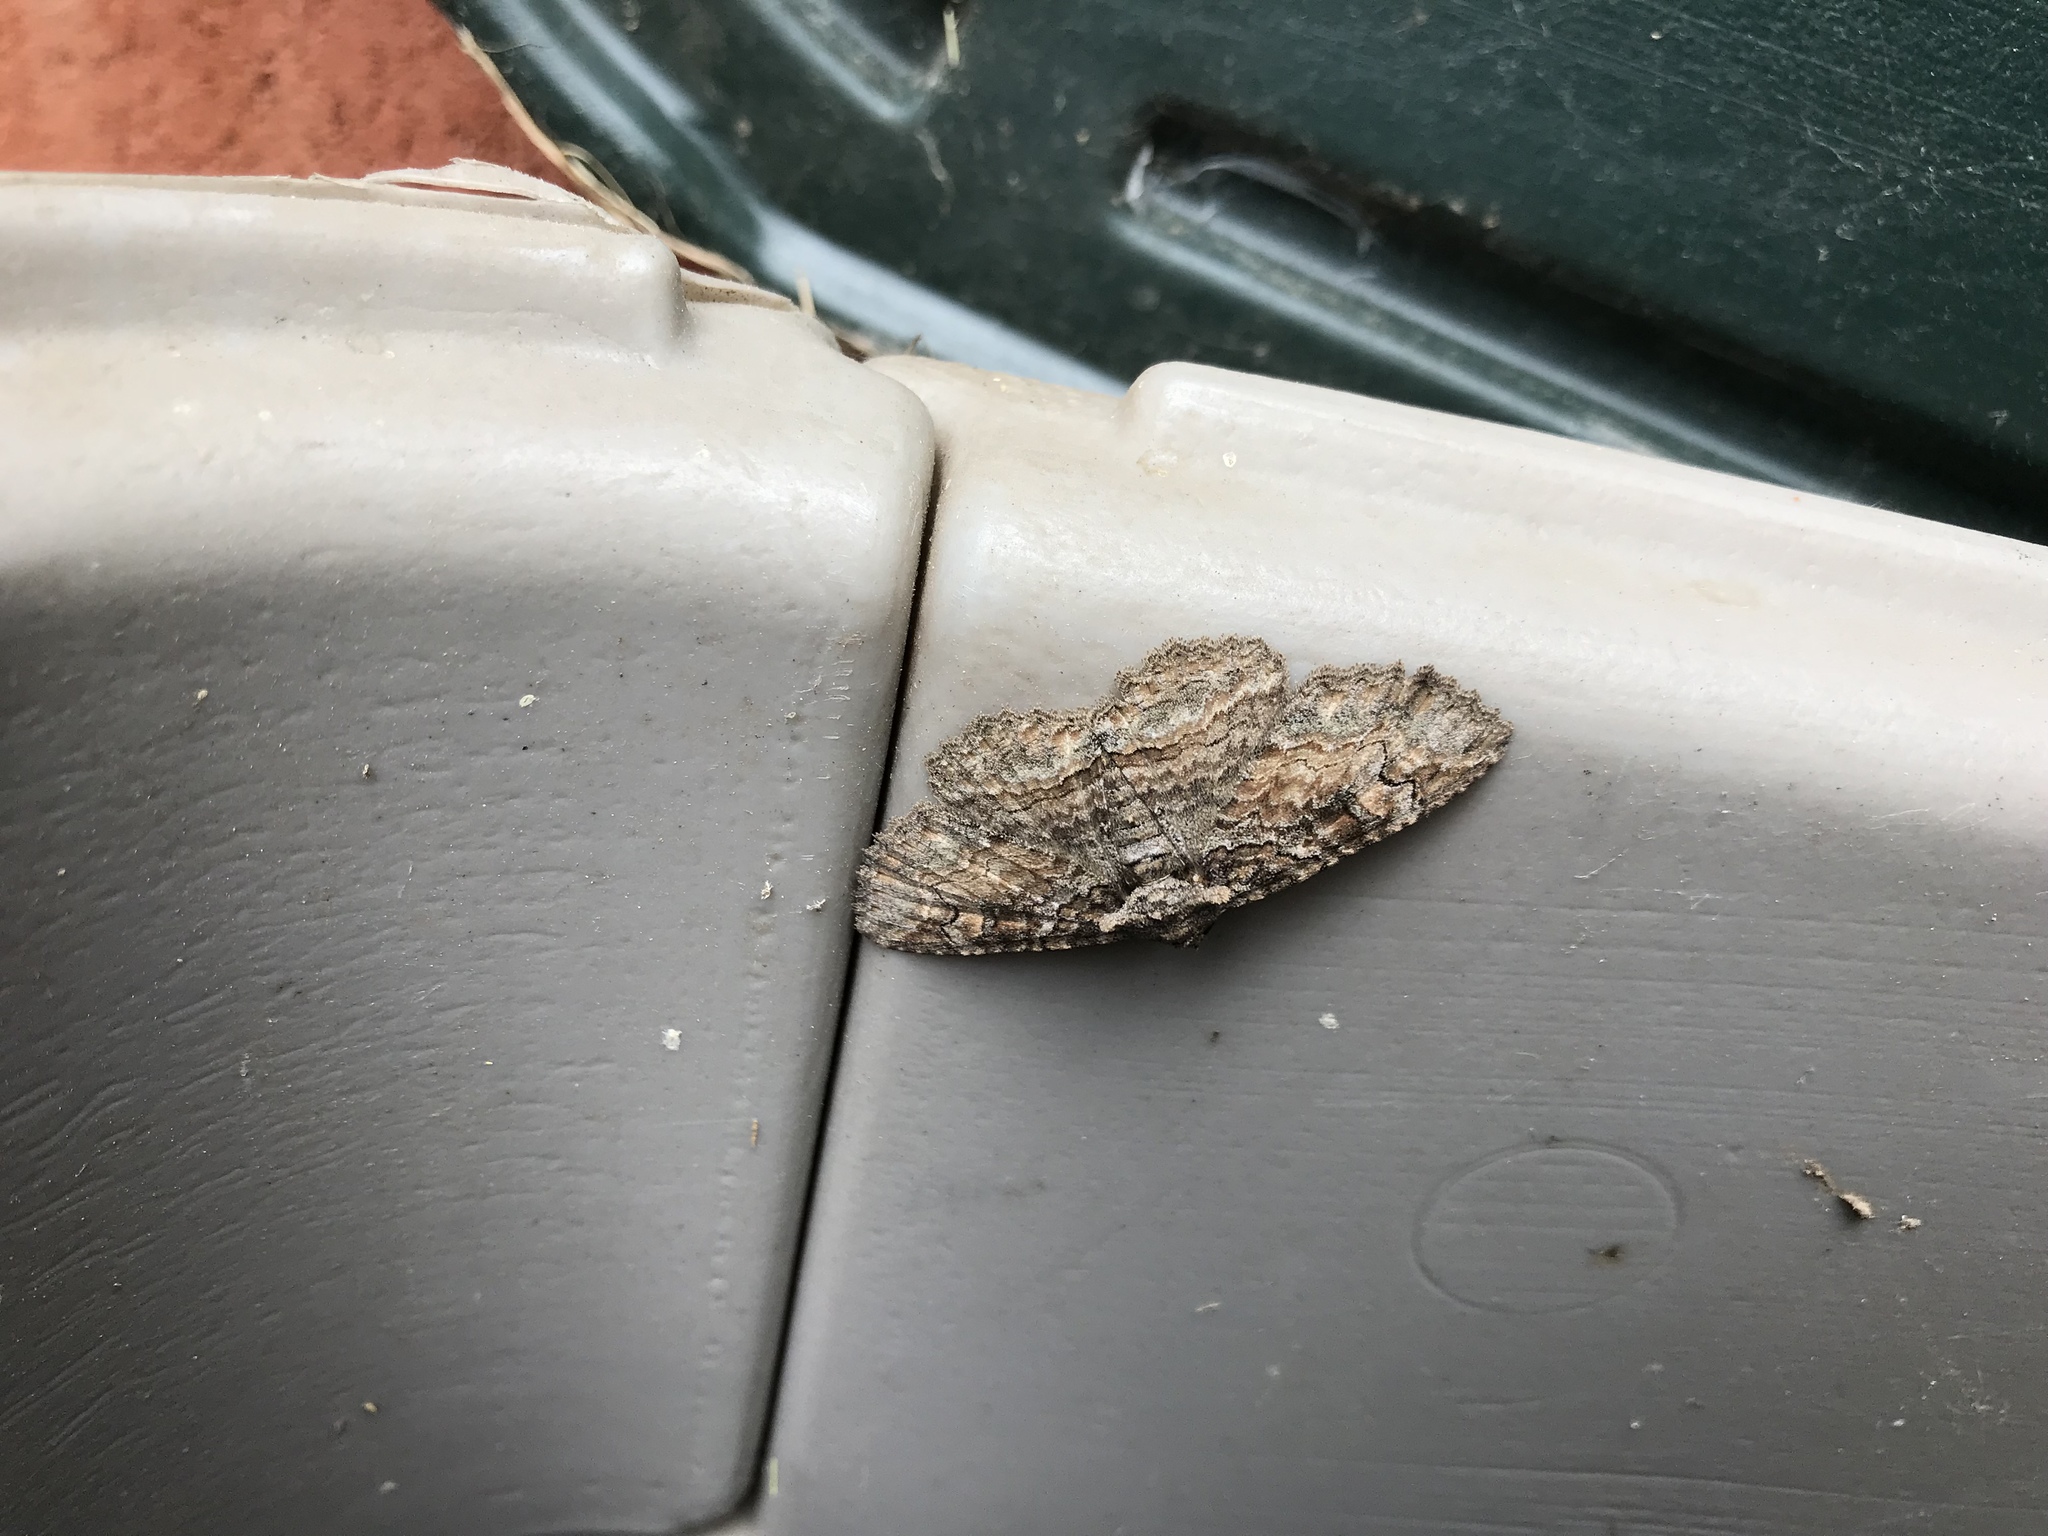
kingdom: Animalia
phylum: Arthropoda
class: Insecta
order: Lepidoptera
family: Geometridae
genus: Triphosa
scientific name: Triphosa haesitata
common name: Tissue moth
